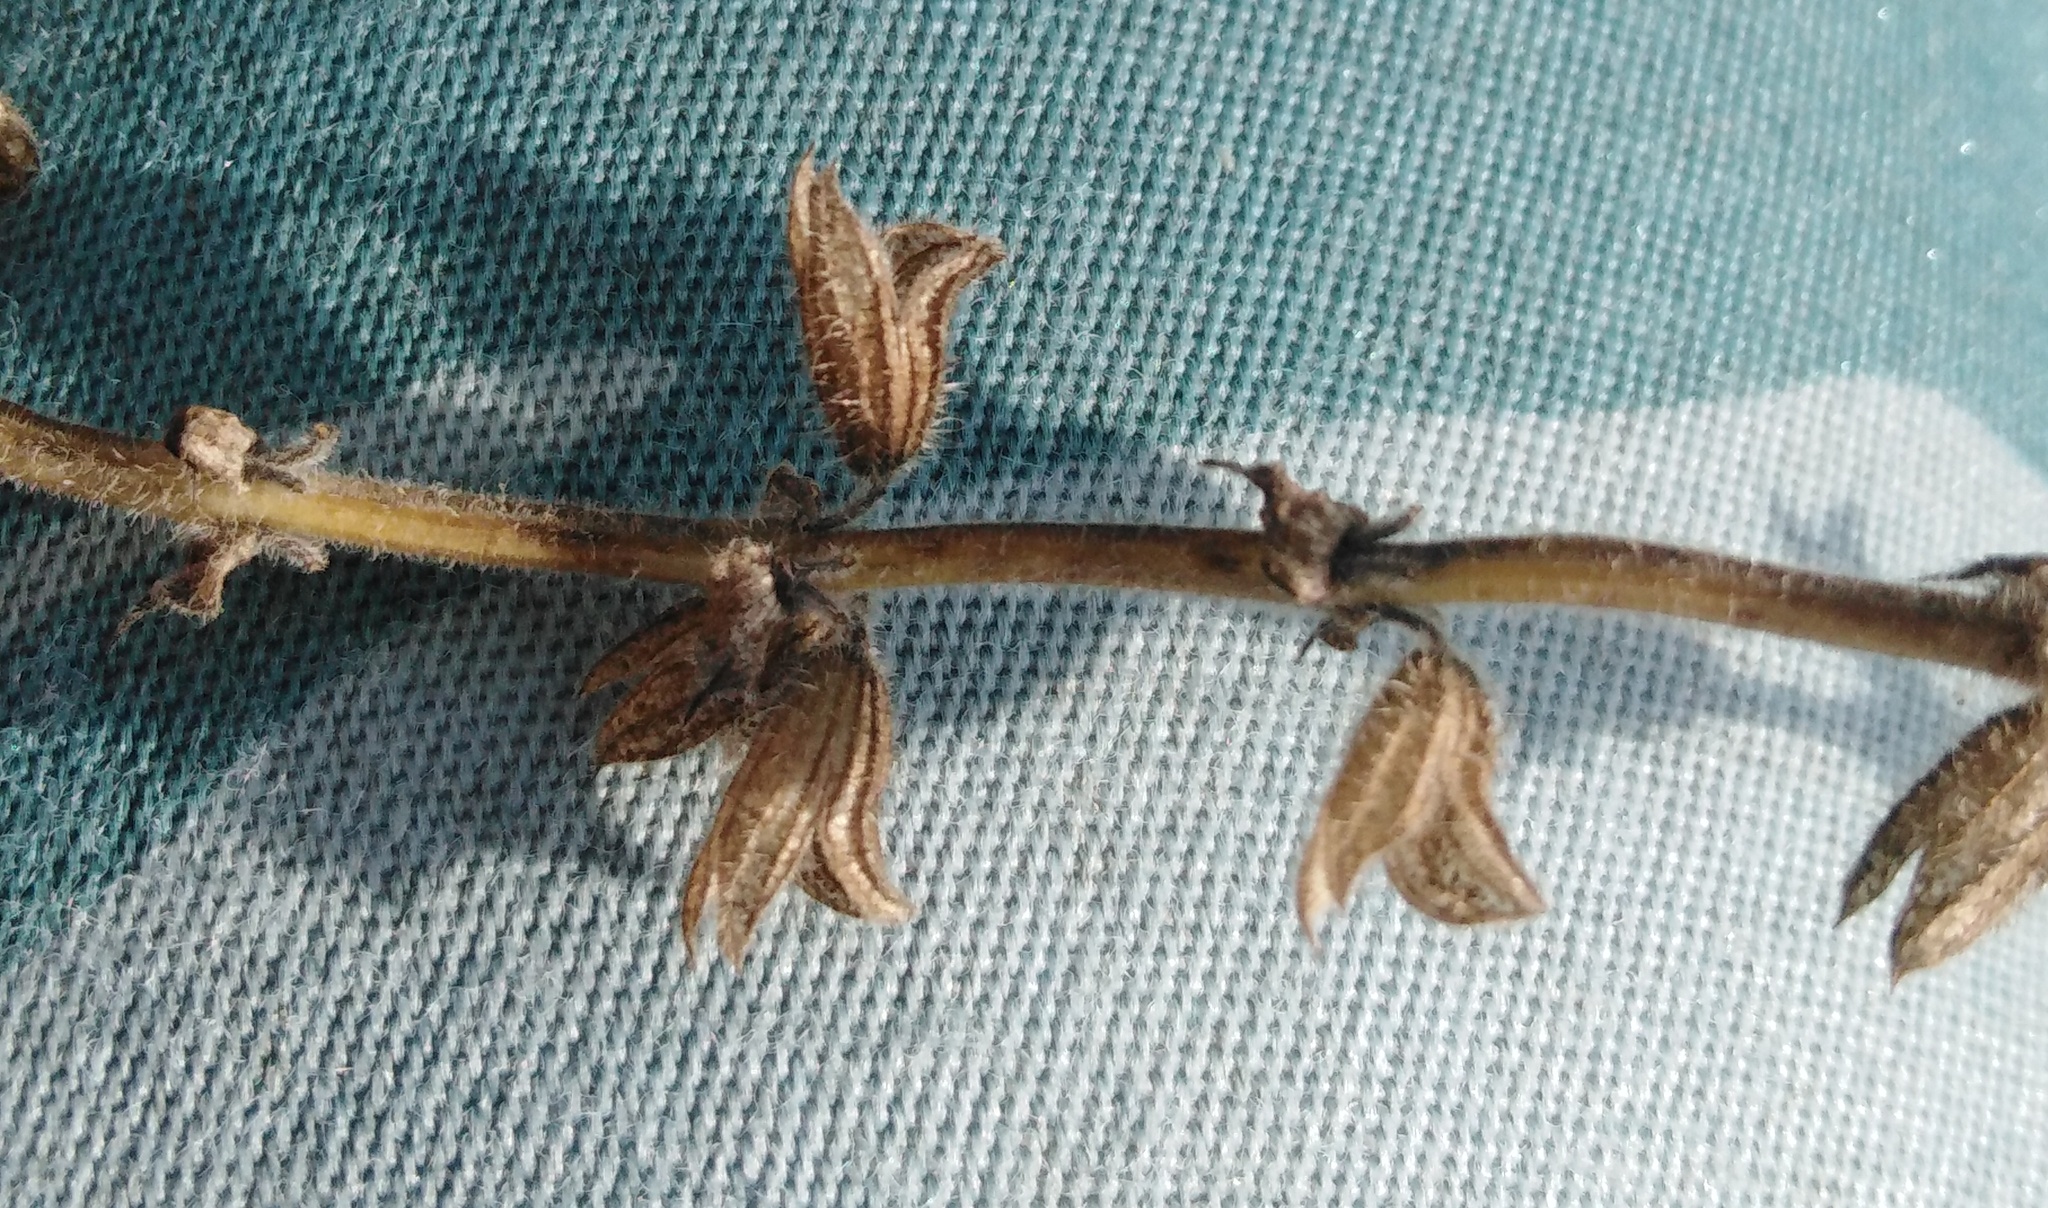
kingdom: Plantae
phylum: Tracheophyta
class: Magnoliopsida
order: Lamiales
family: Lamiaceae
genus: Salvia
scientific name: Salvia dumetorum
